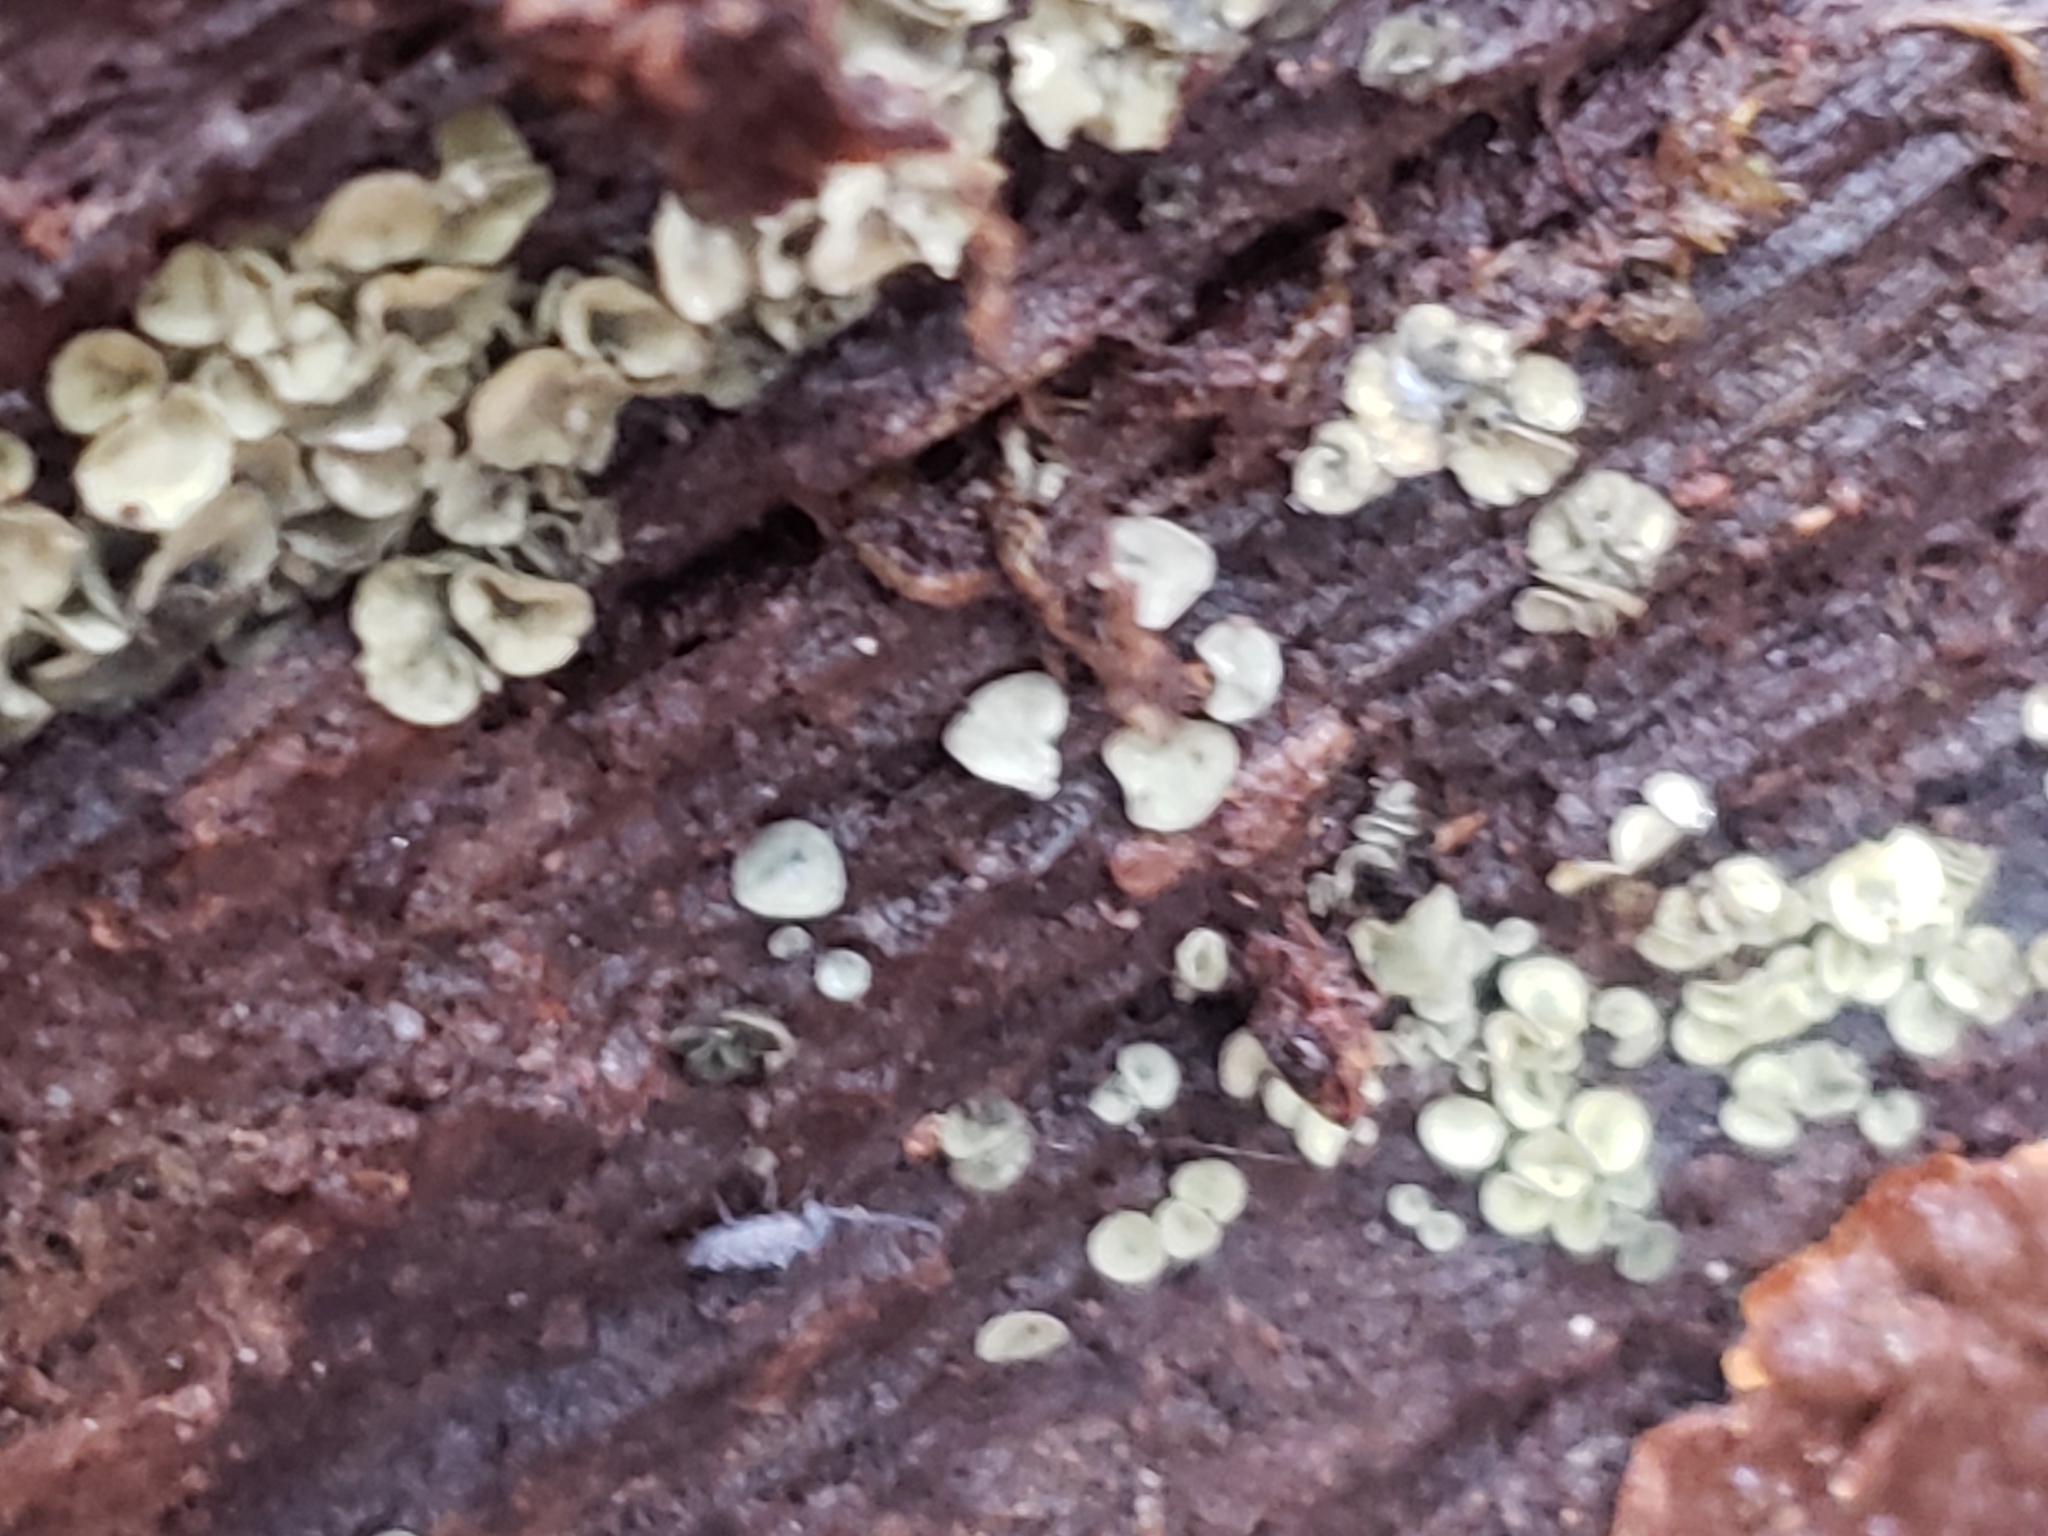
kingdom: Fungi
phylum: Ascomycota
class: Leotiomycetes
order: Helotiales
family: Chlorospleniaceae
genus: Chlorosplenium
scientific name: Chlorosplenium chlora
